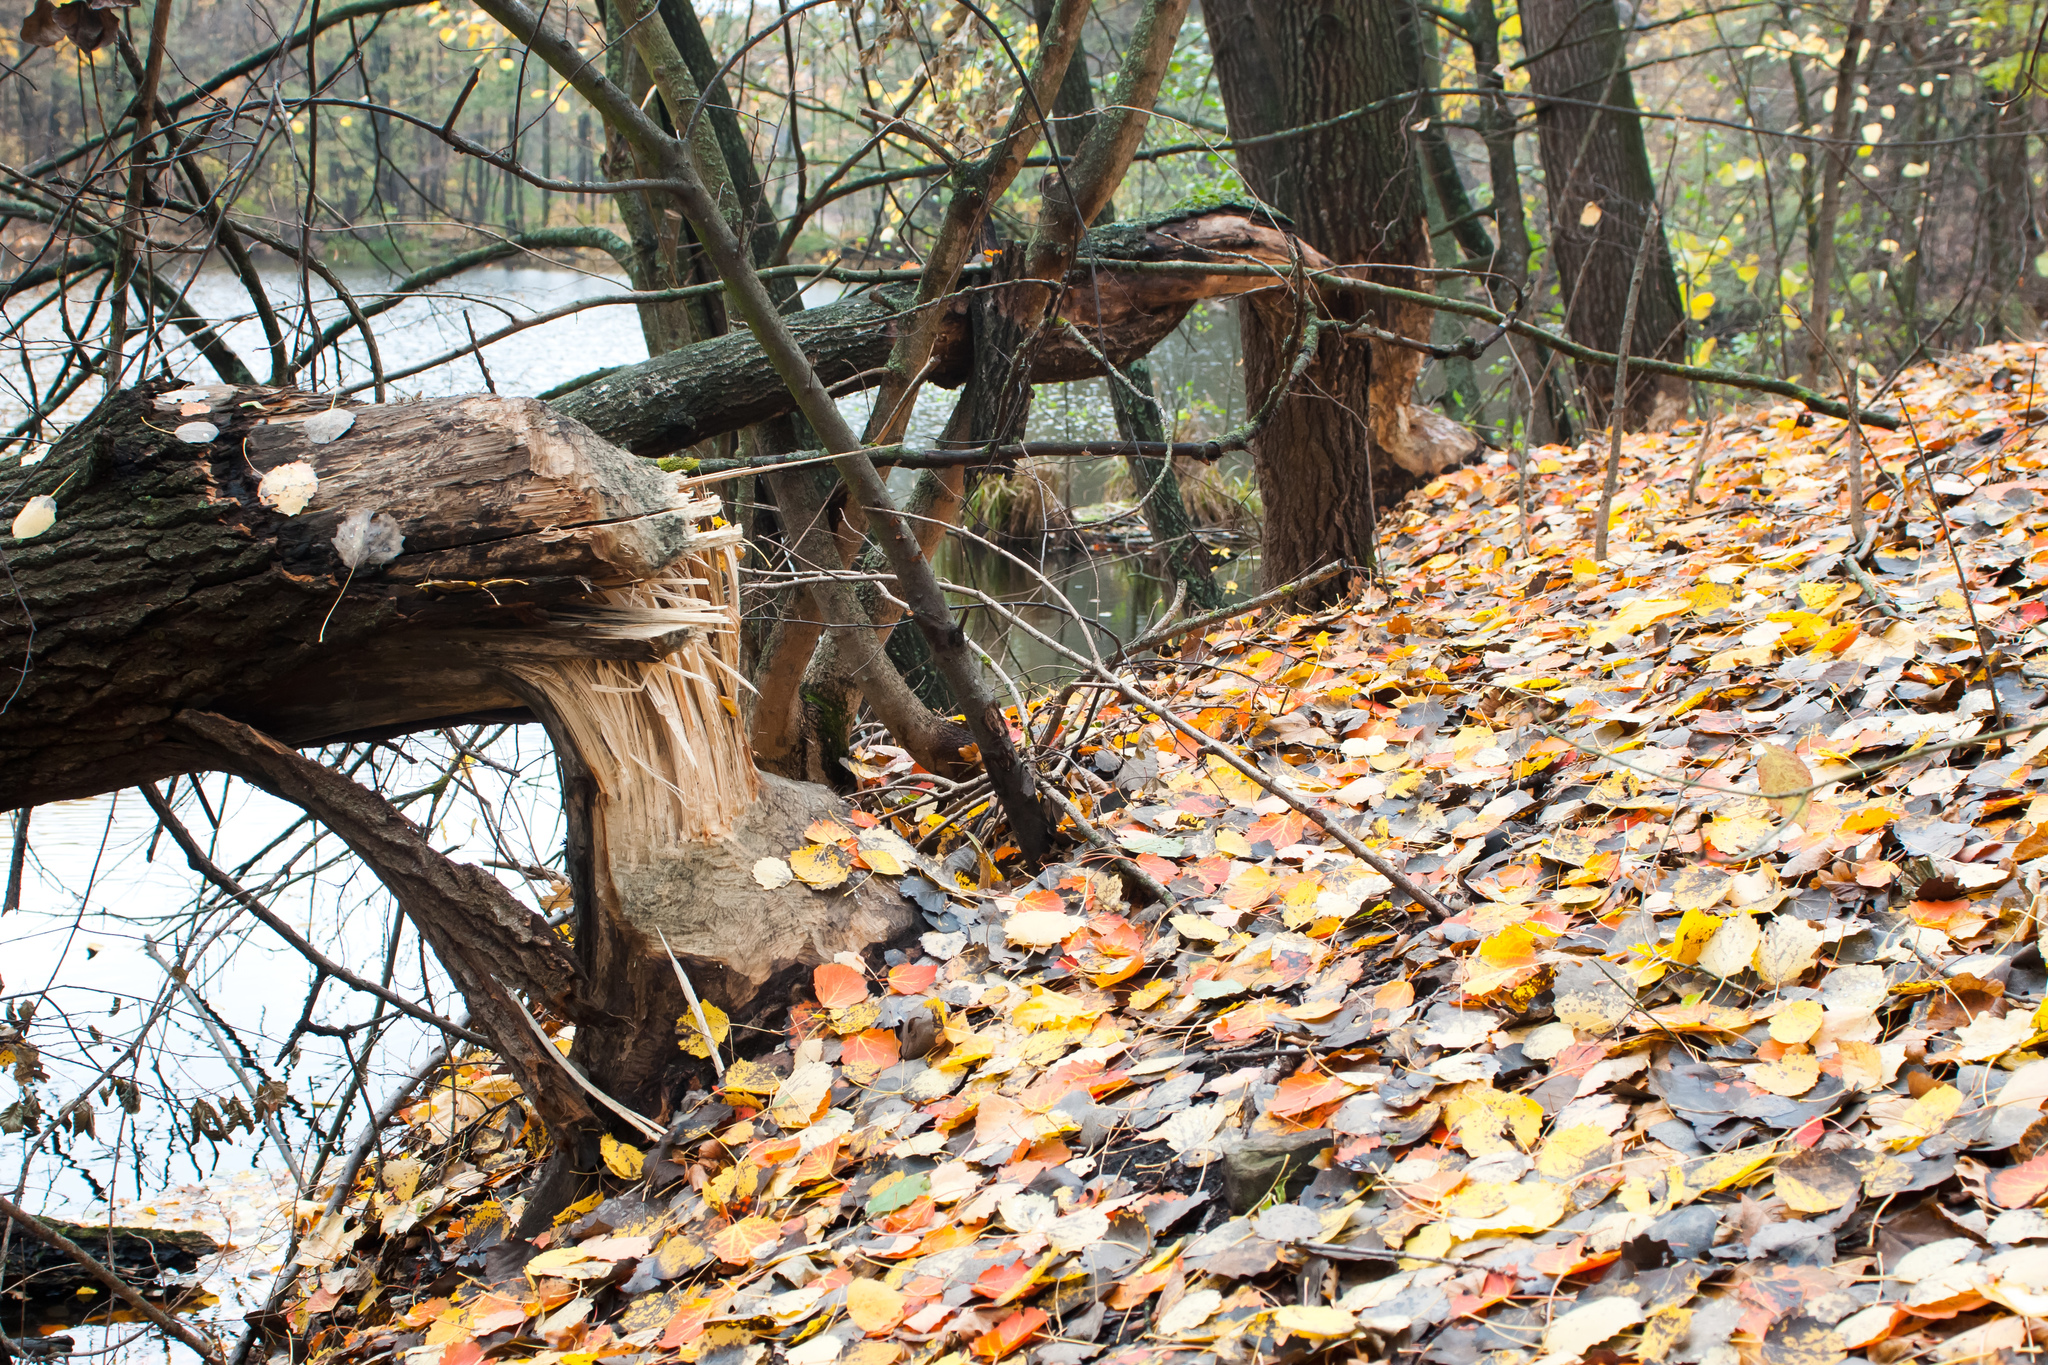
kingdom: Animalia
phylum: Chordata
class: Mammalia
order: Rodentia
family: Castoridae
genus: Castor
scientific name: Castor fiber
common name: Eurasian beaver
